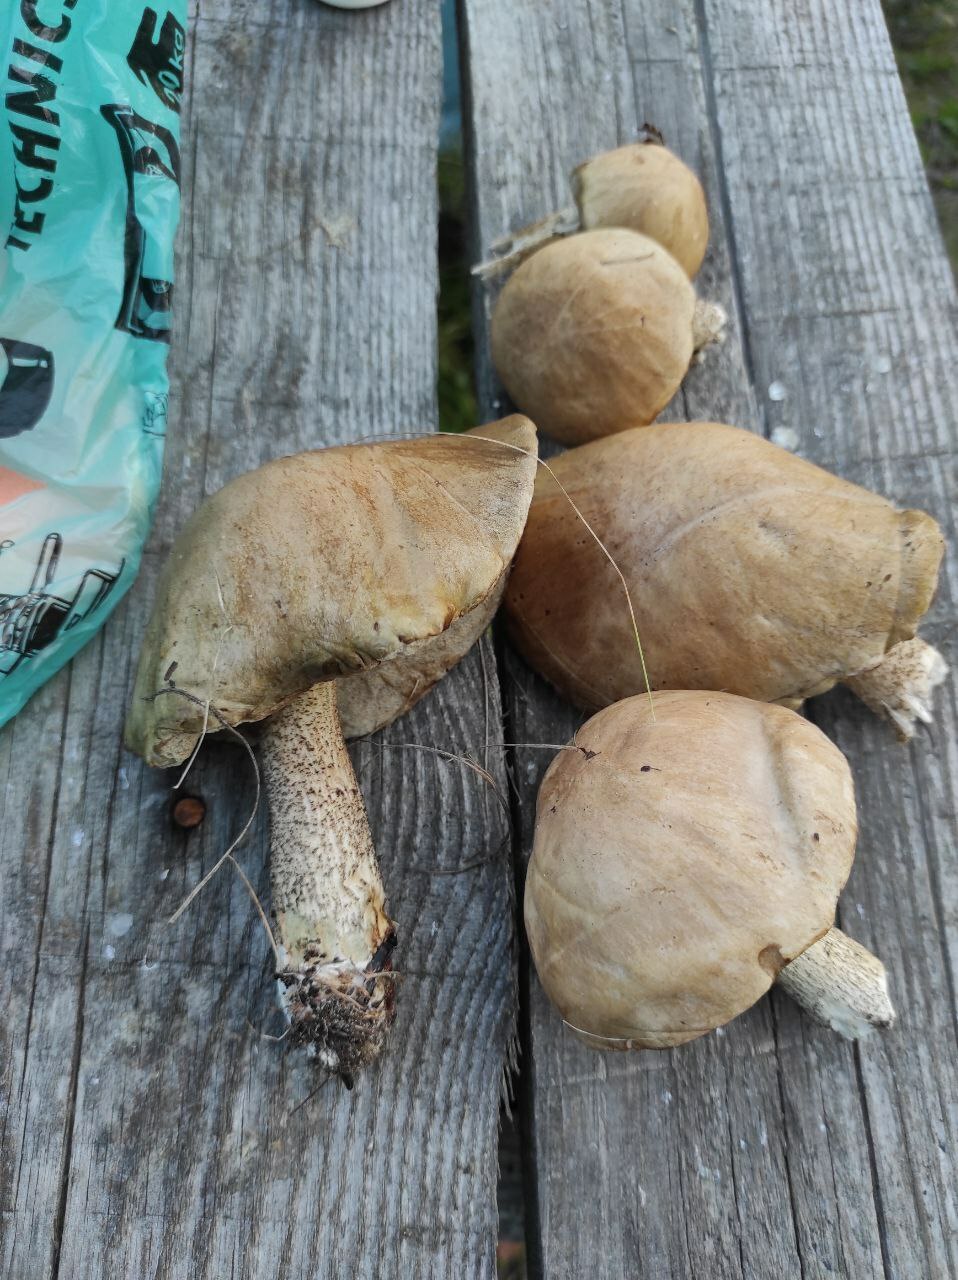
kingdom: Fungi
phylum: Basidiomycota
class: Agaricomycetes
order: Boletales
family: Boletaceae
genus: Leccinum
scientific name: Leccinum scabrum
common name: Blushing bolete
